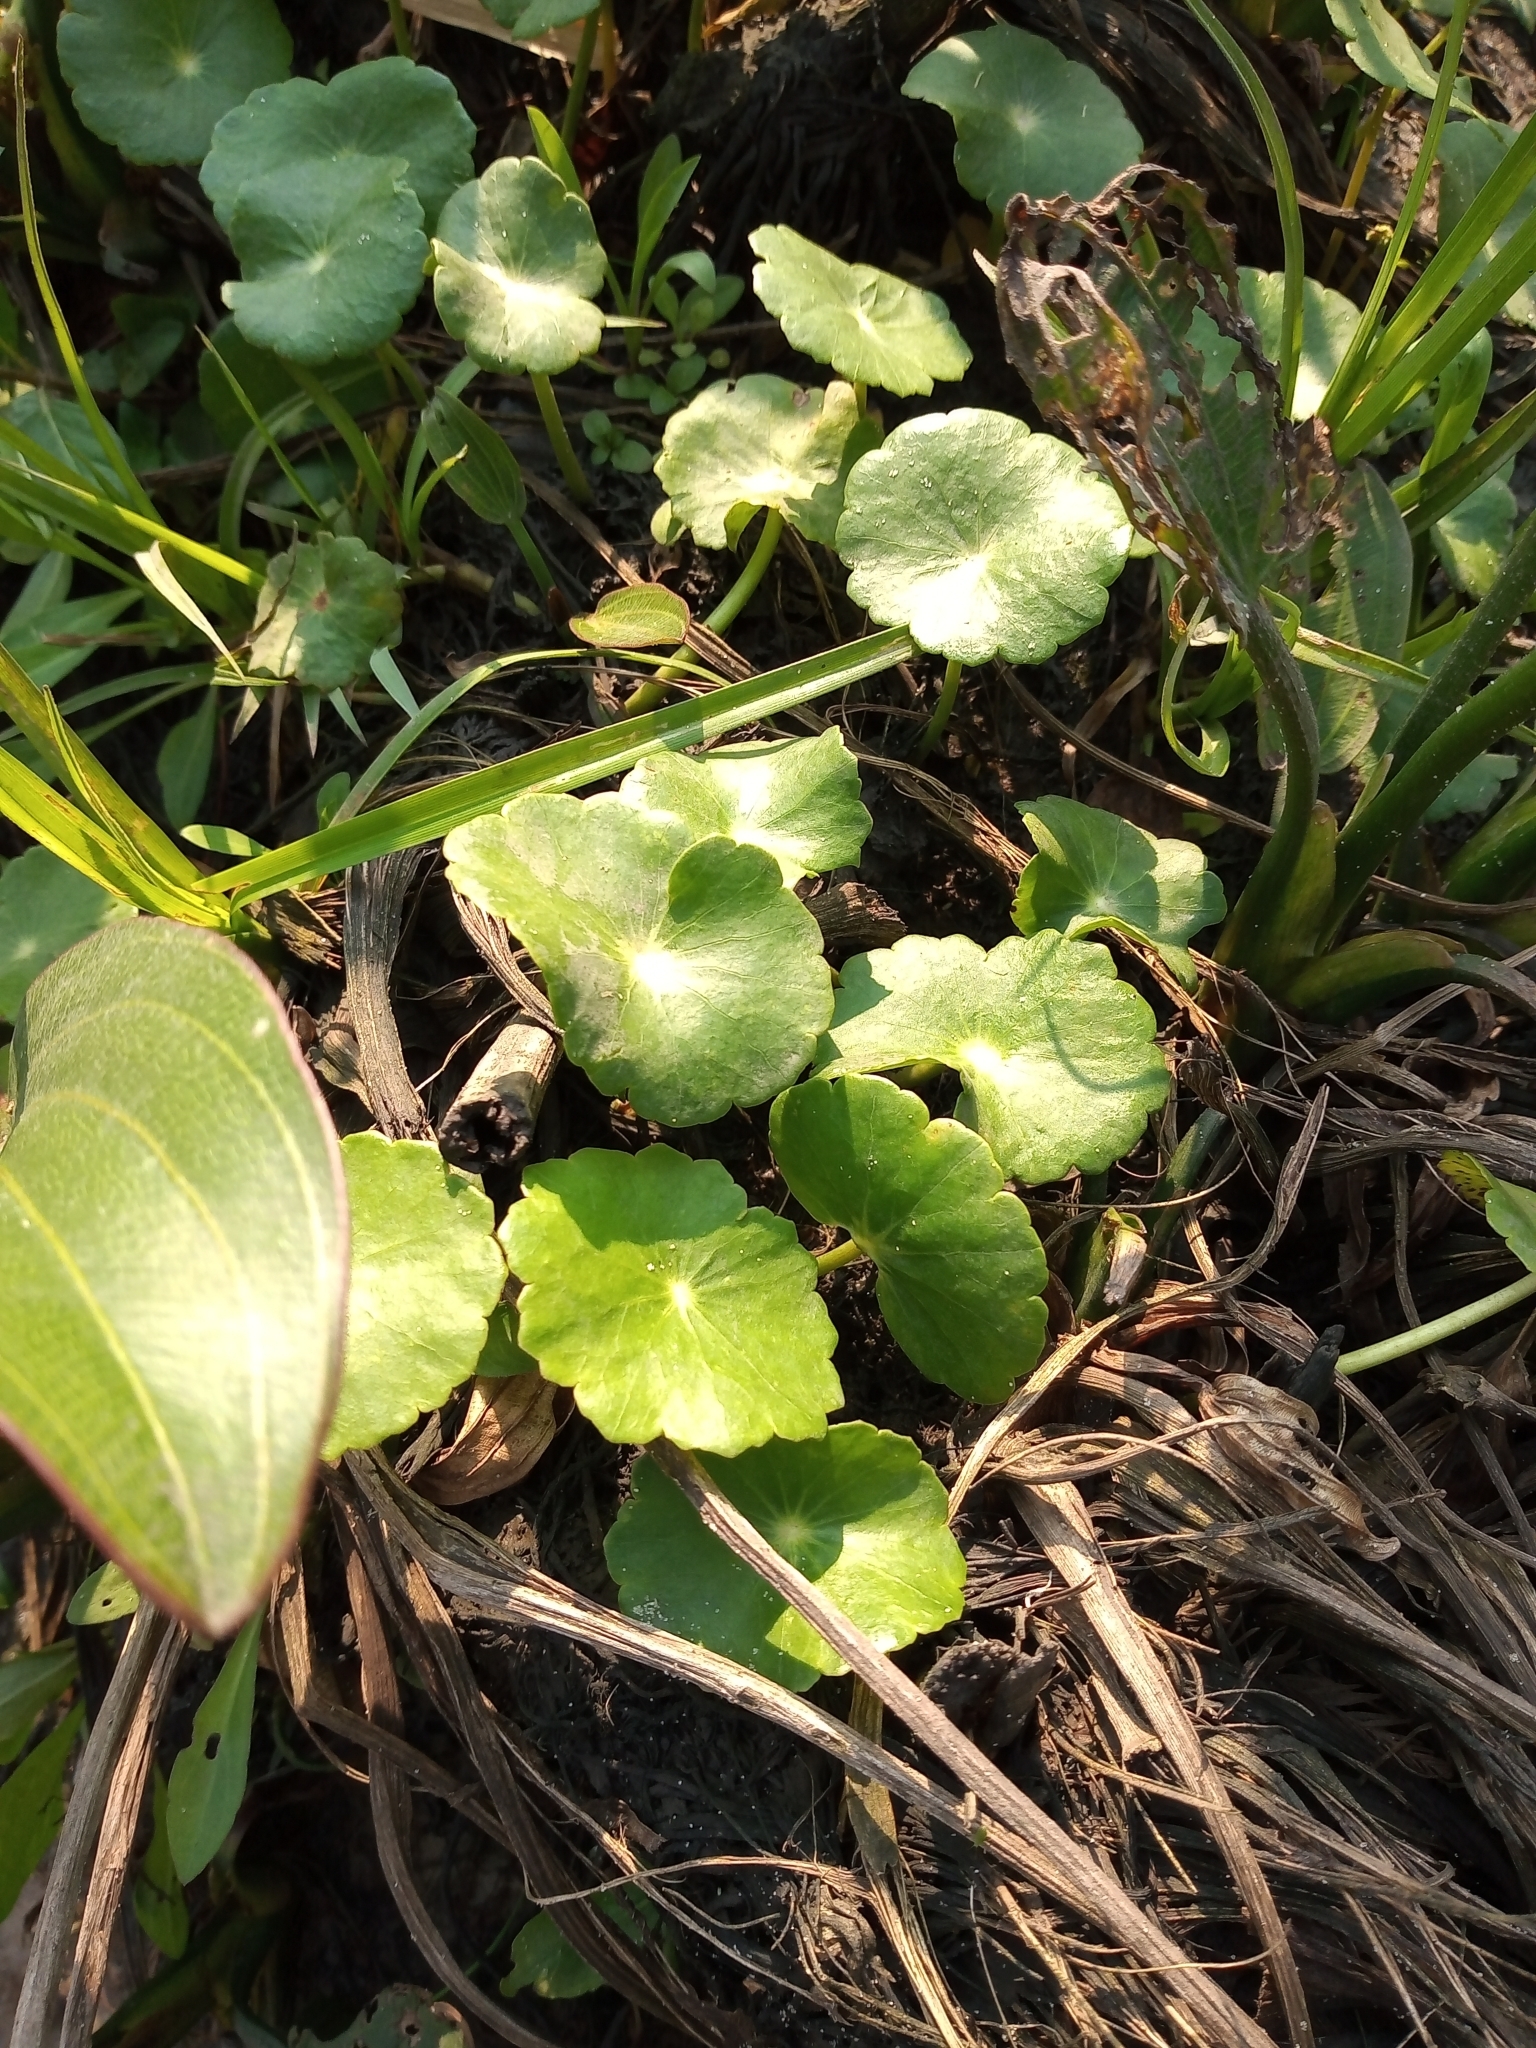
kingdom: Plantae
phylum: Tracheophyta
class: Magnoliopsida
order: Apiales
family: Araliaceae
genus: Hydrocotyle
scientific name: Hydrocotyle bonariensis
